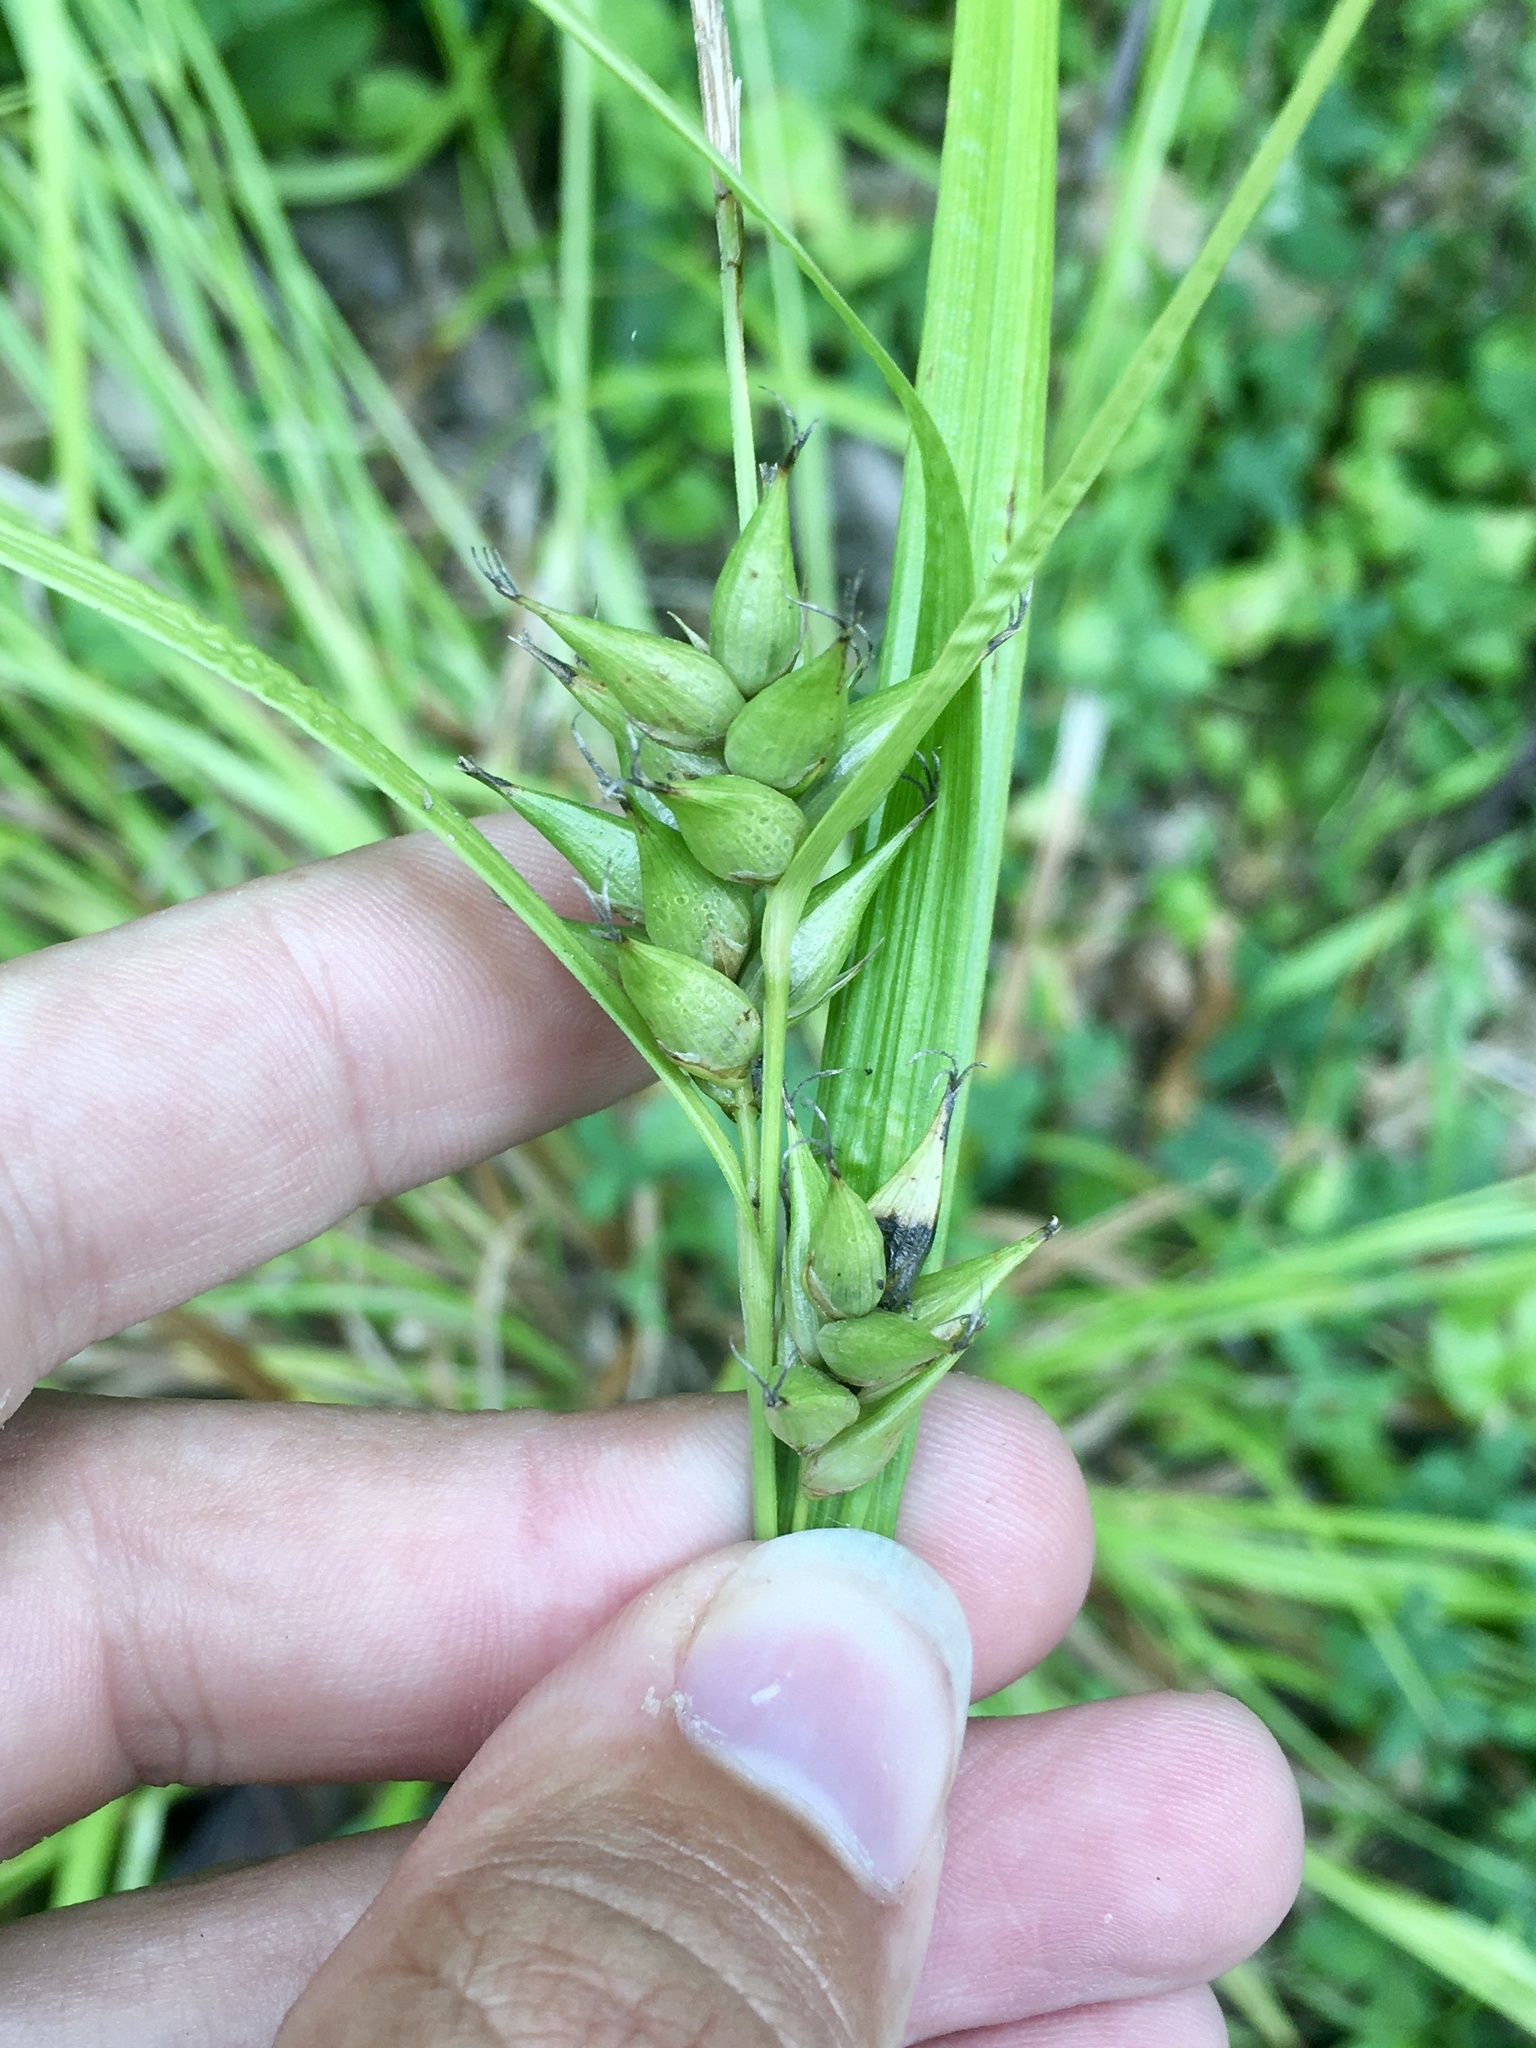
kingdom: Plantae
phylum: Tracheophyta
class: Liliopsida
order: Poales
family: Cyperaceae
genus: Carex
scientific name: Carex intumescens
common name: Greater bladder sedge
